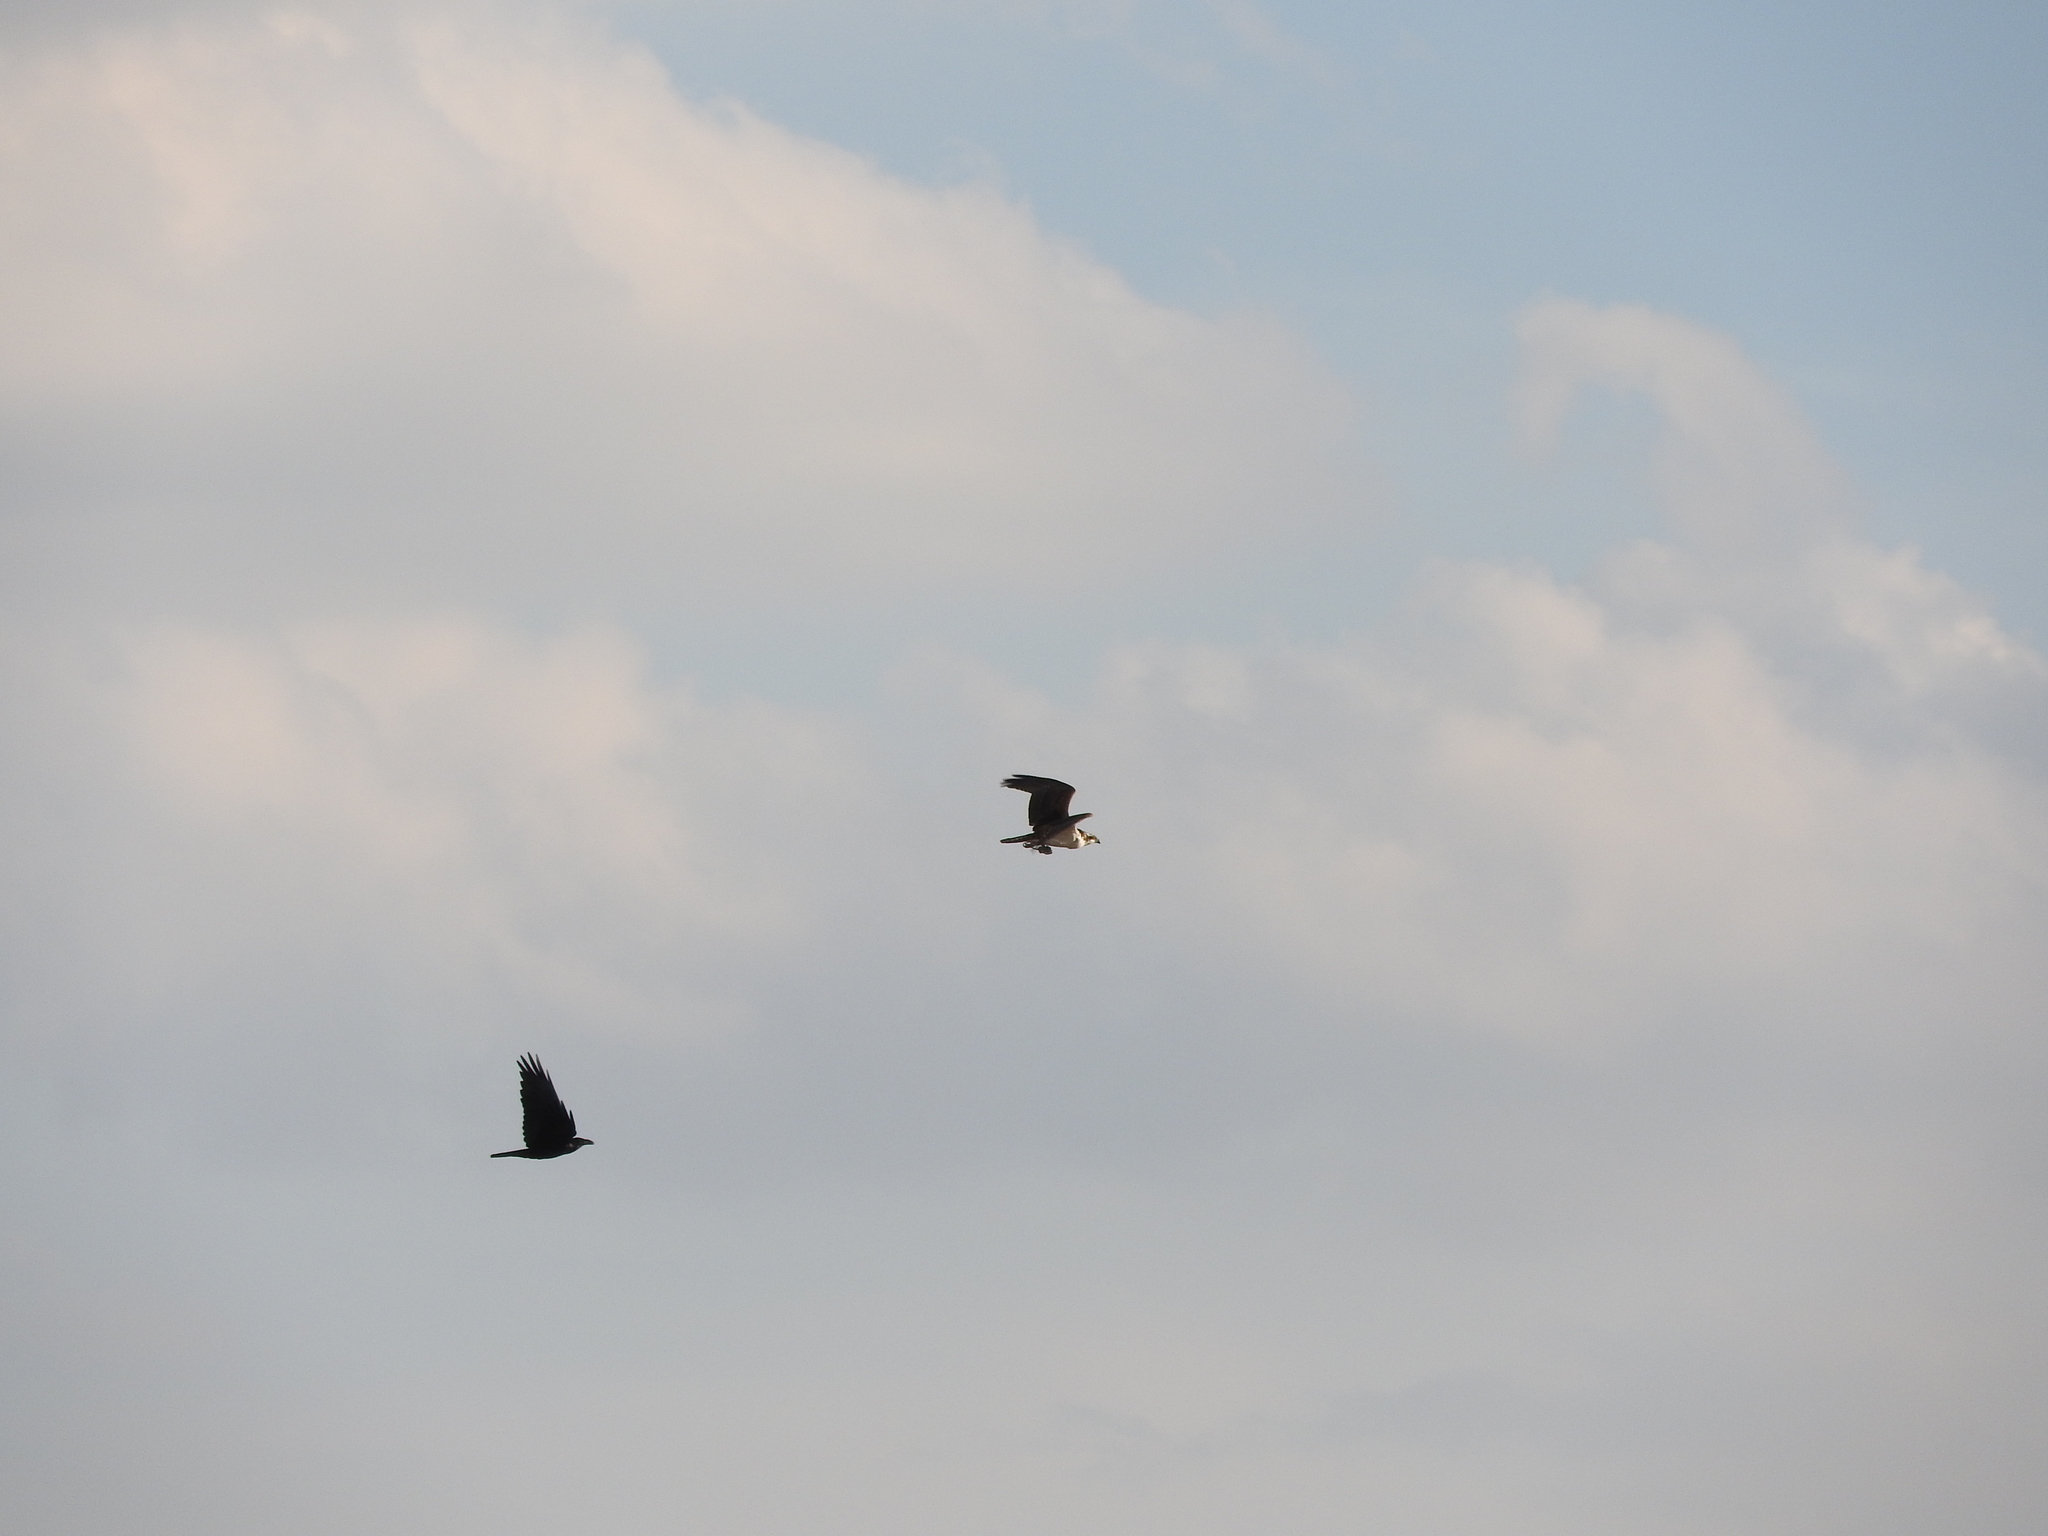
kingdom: Animalia
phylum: Chordata
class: Aves
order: Passeriformes
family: Corvidae
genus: Corvus
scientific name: Corvus corax
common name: Common raven
